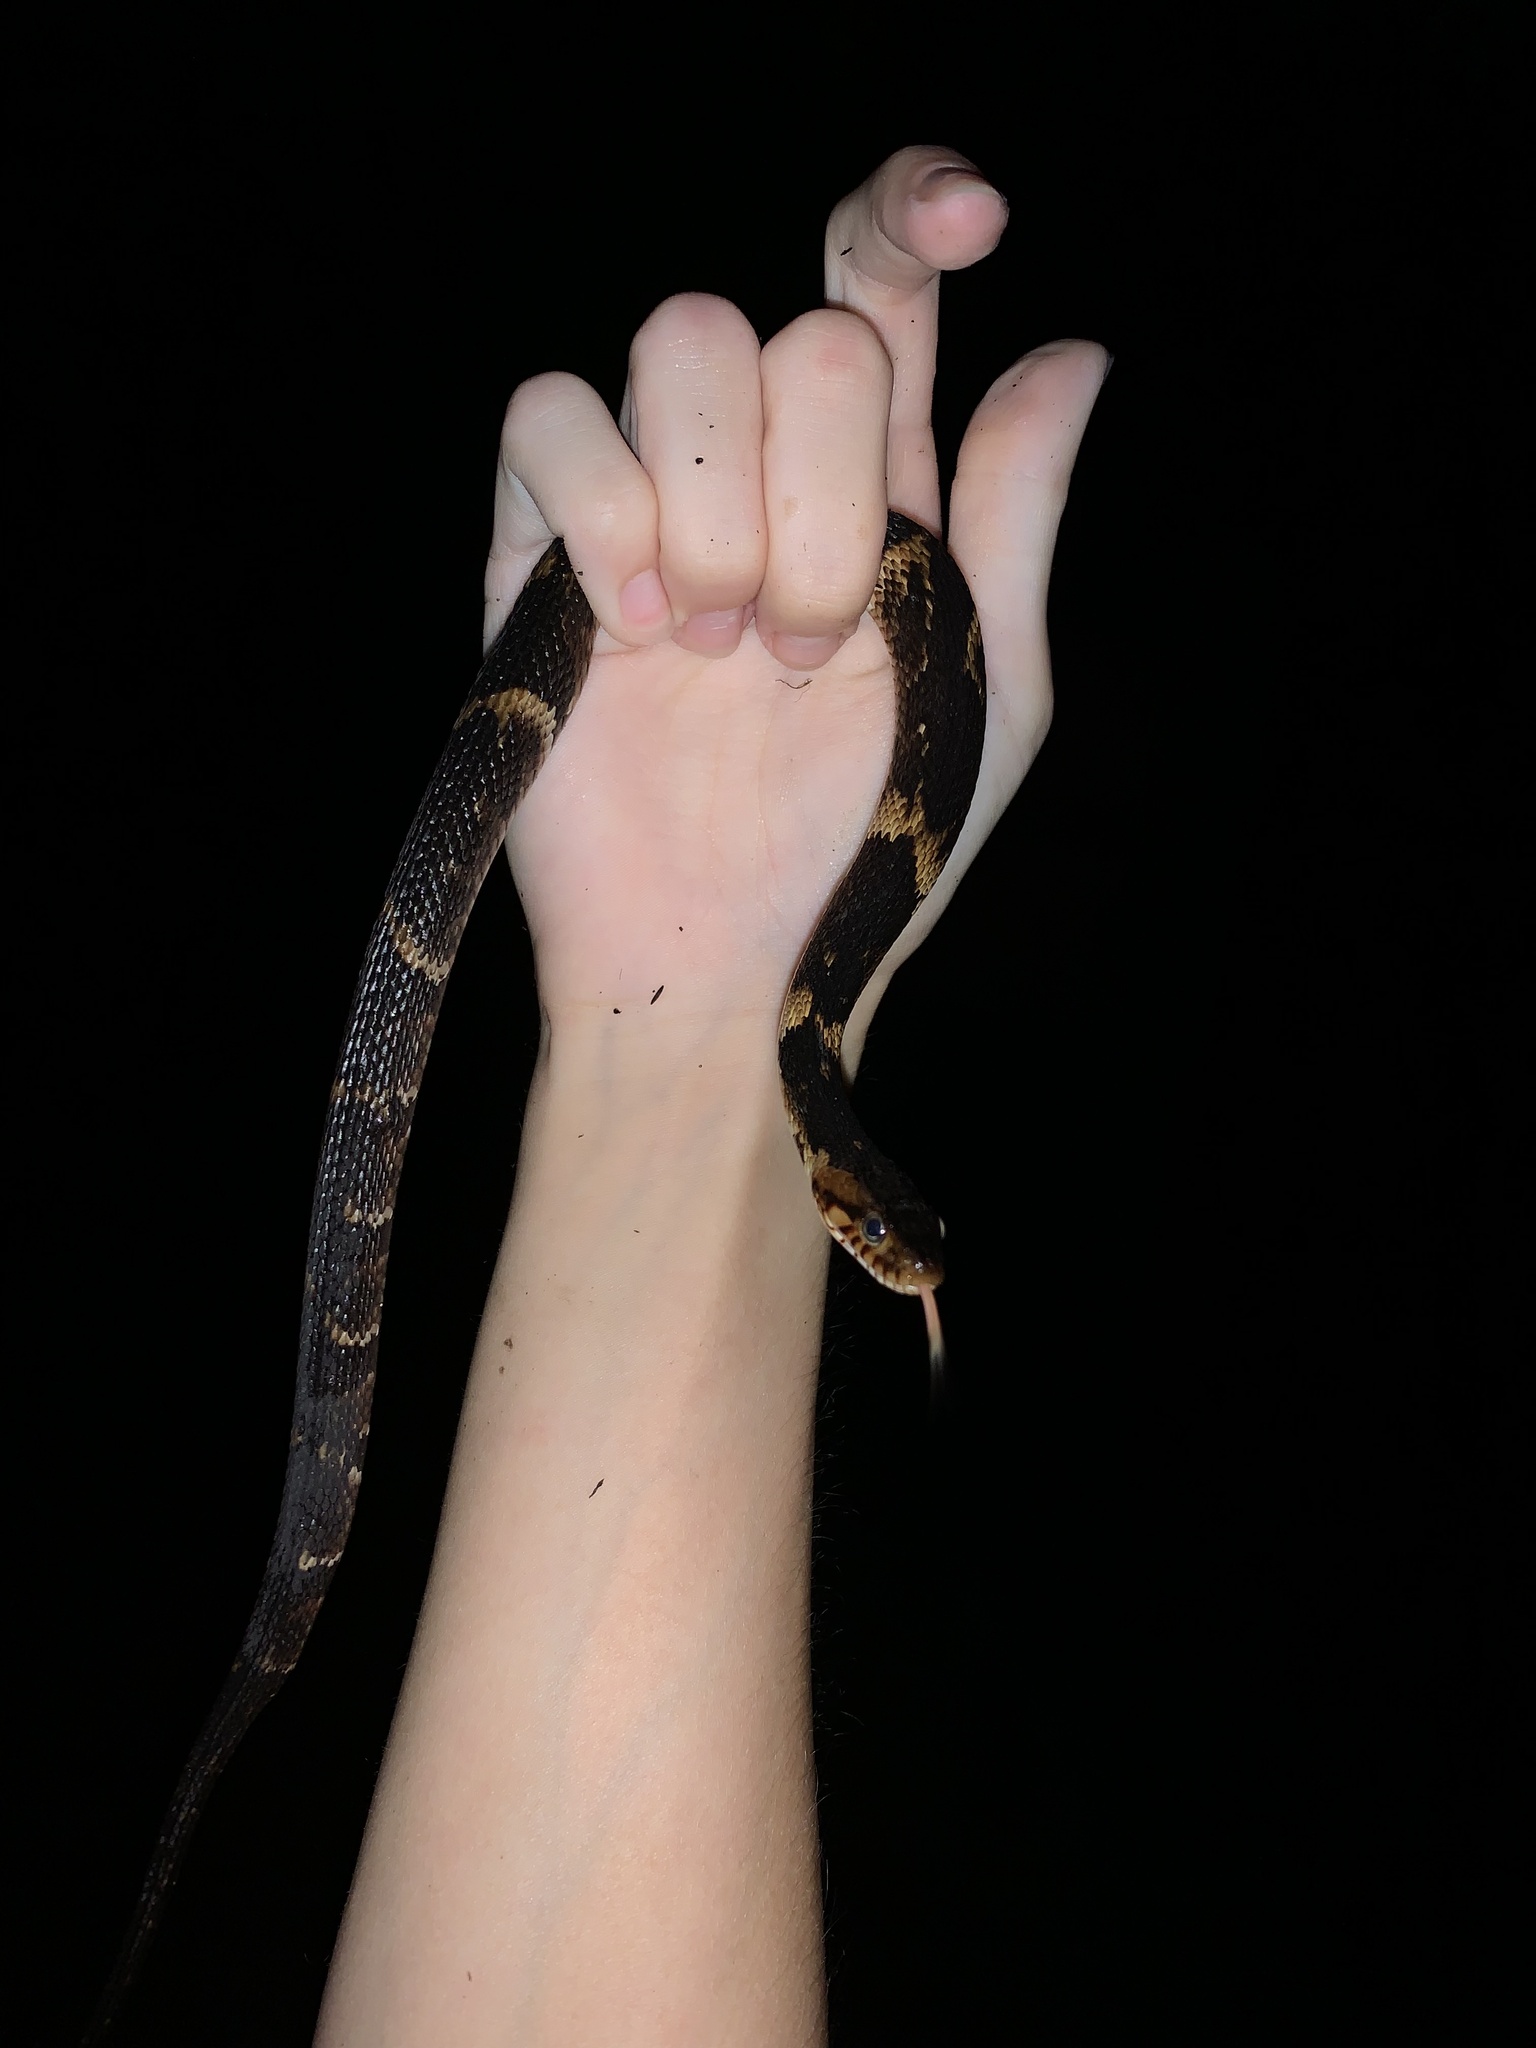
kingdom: Animalia
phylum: Chordata
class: Squamata
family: Colubridae
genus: Nerodia
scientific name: Nerodia fasciata
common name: Southern water snake
